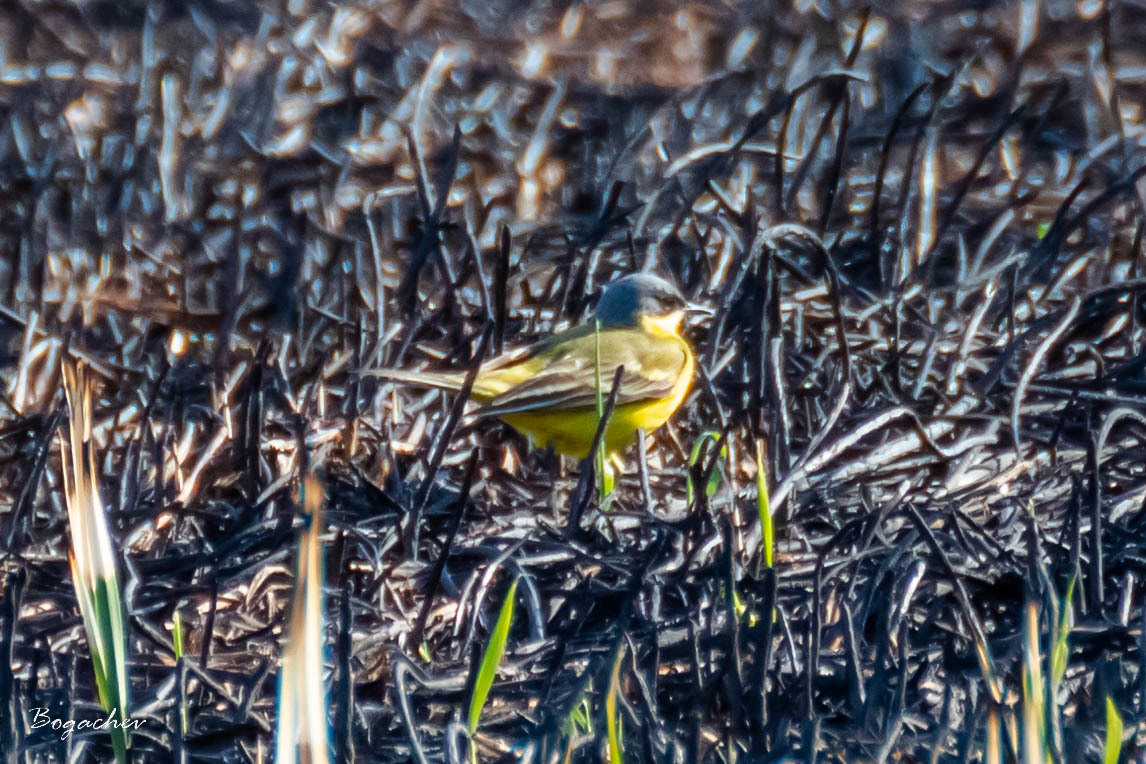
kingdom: Animalia
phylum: Chordata
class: Aves
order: Passeriformes
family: Motacillidae
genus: Motacilla
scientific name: Motacilla flava
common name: Western yellow wagtail
